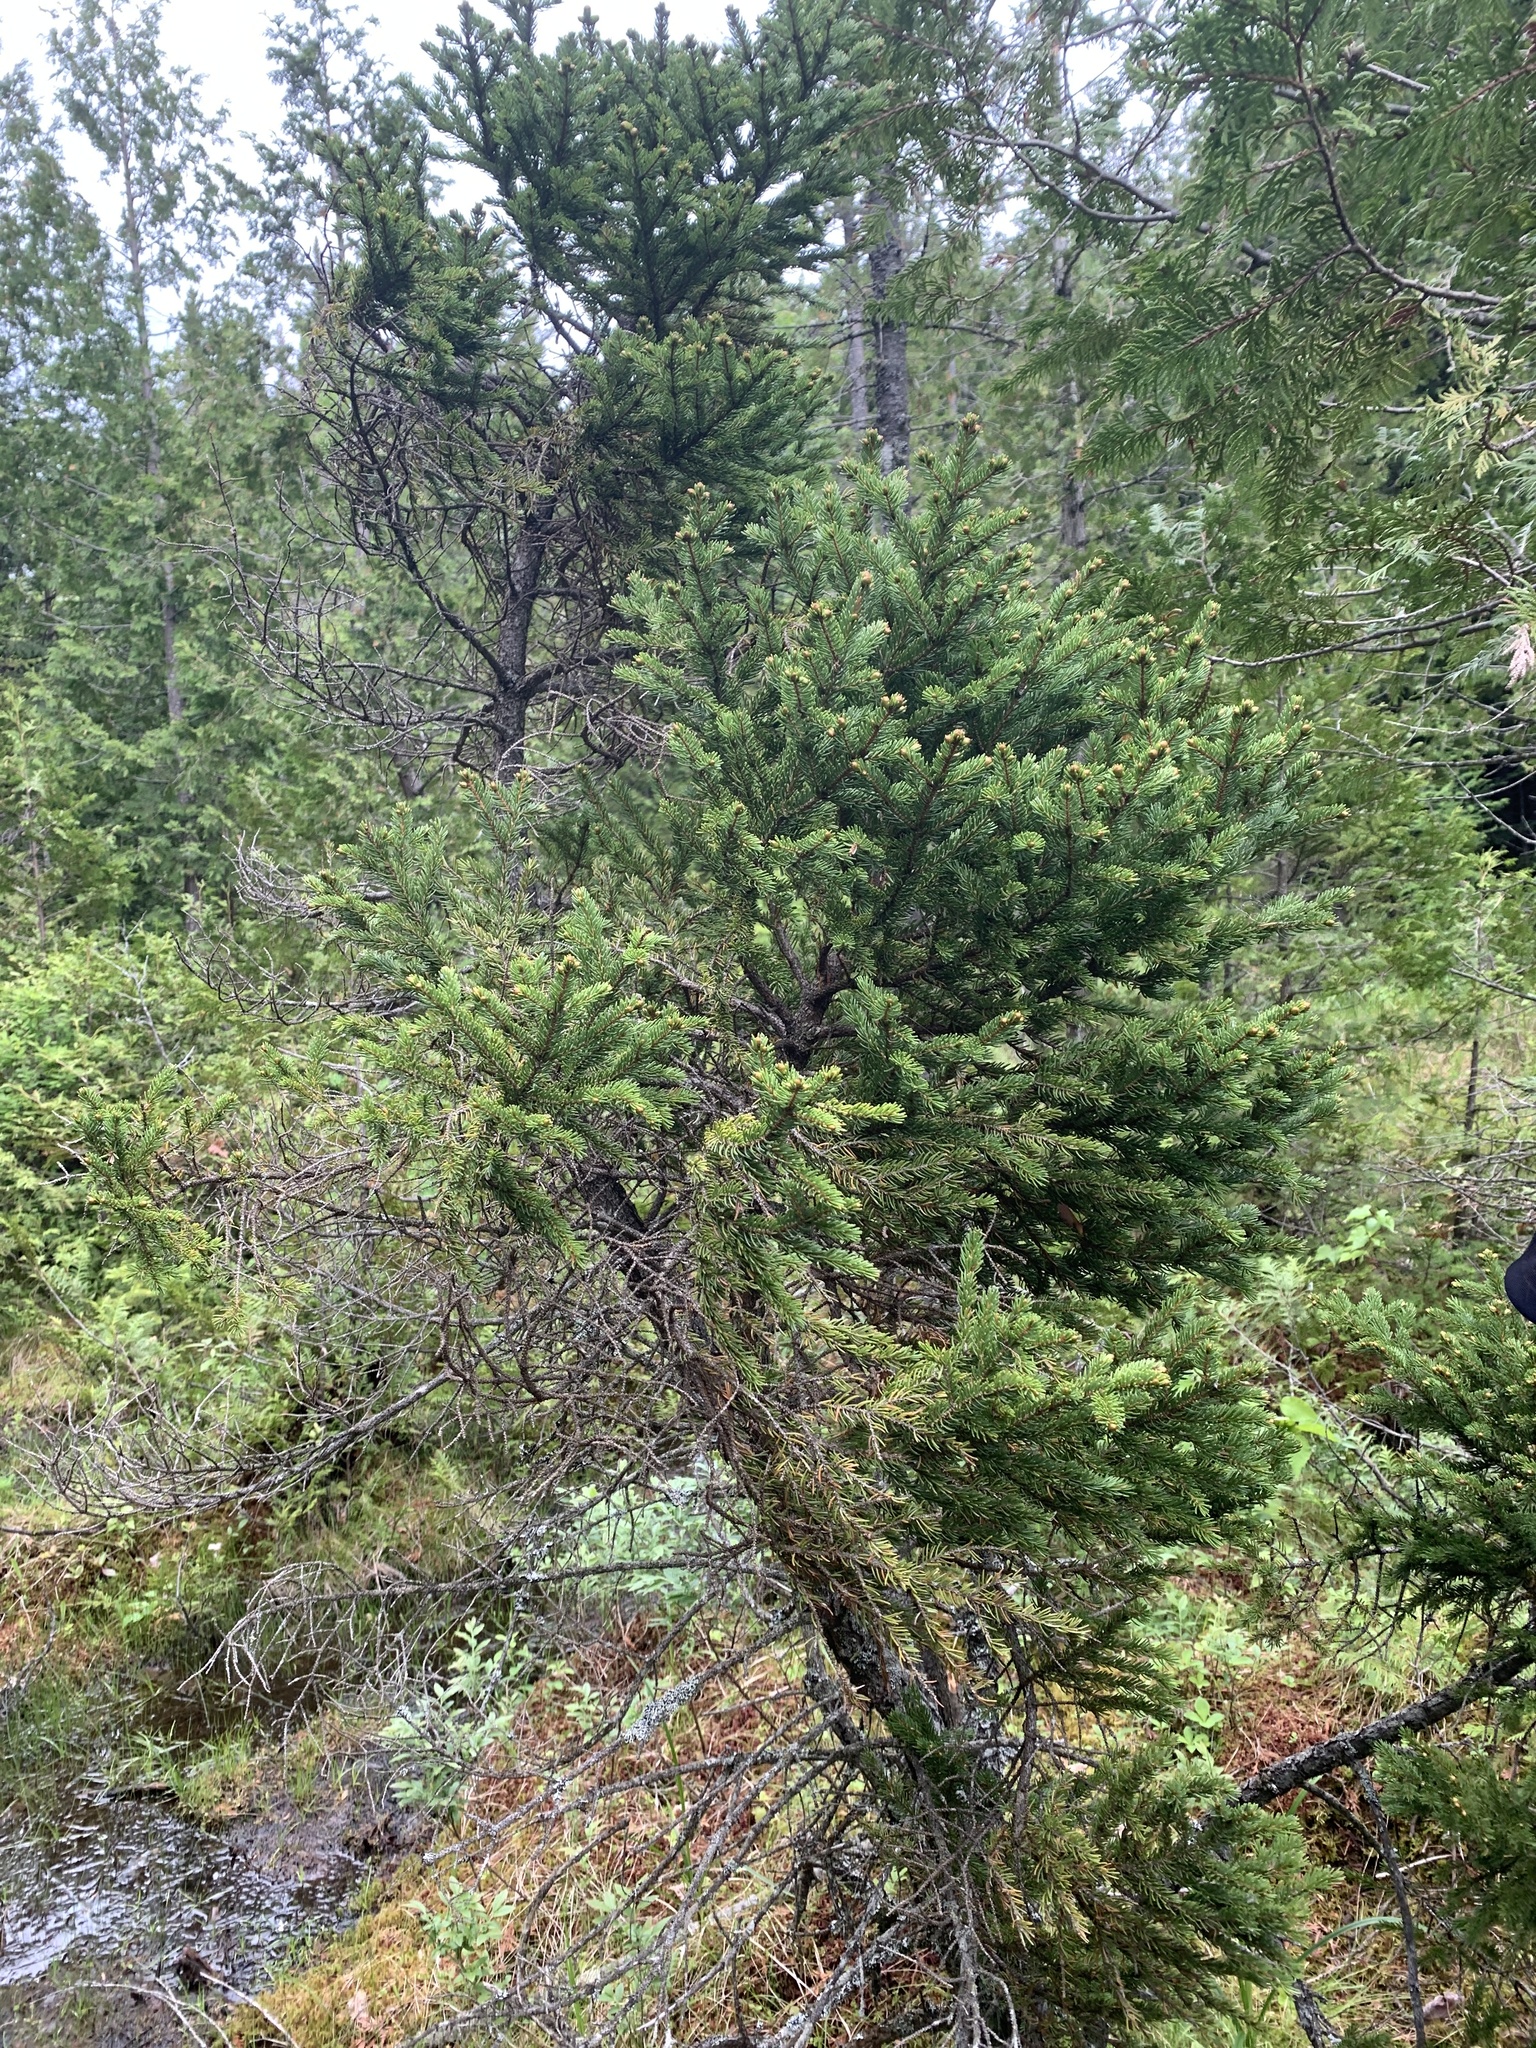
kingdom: Plantae
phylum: Tracheophyta
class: Pinopsida
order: Pinales
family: Pinaceae
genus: Picea
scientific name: Picea mariana
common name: Black spruce
